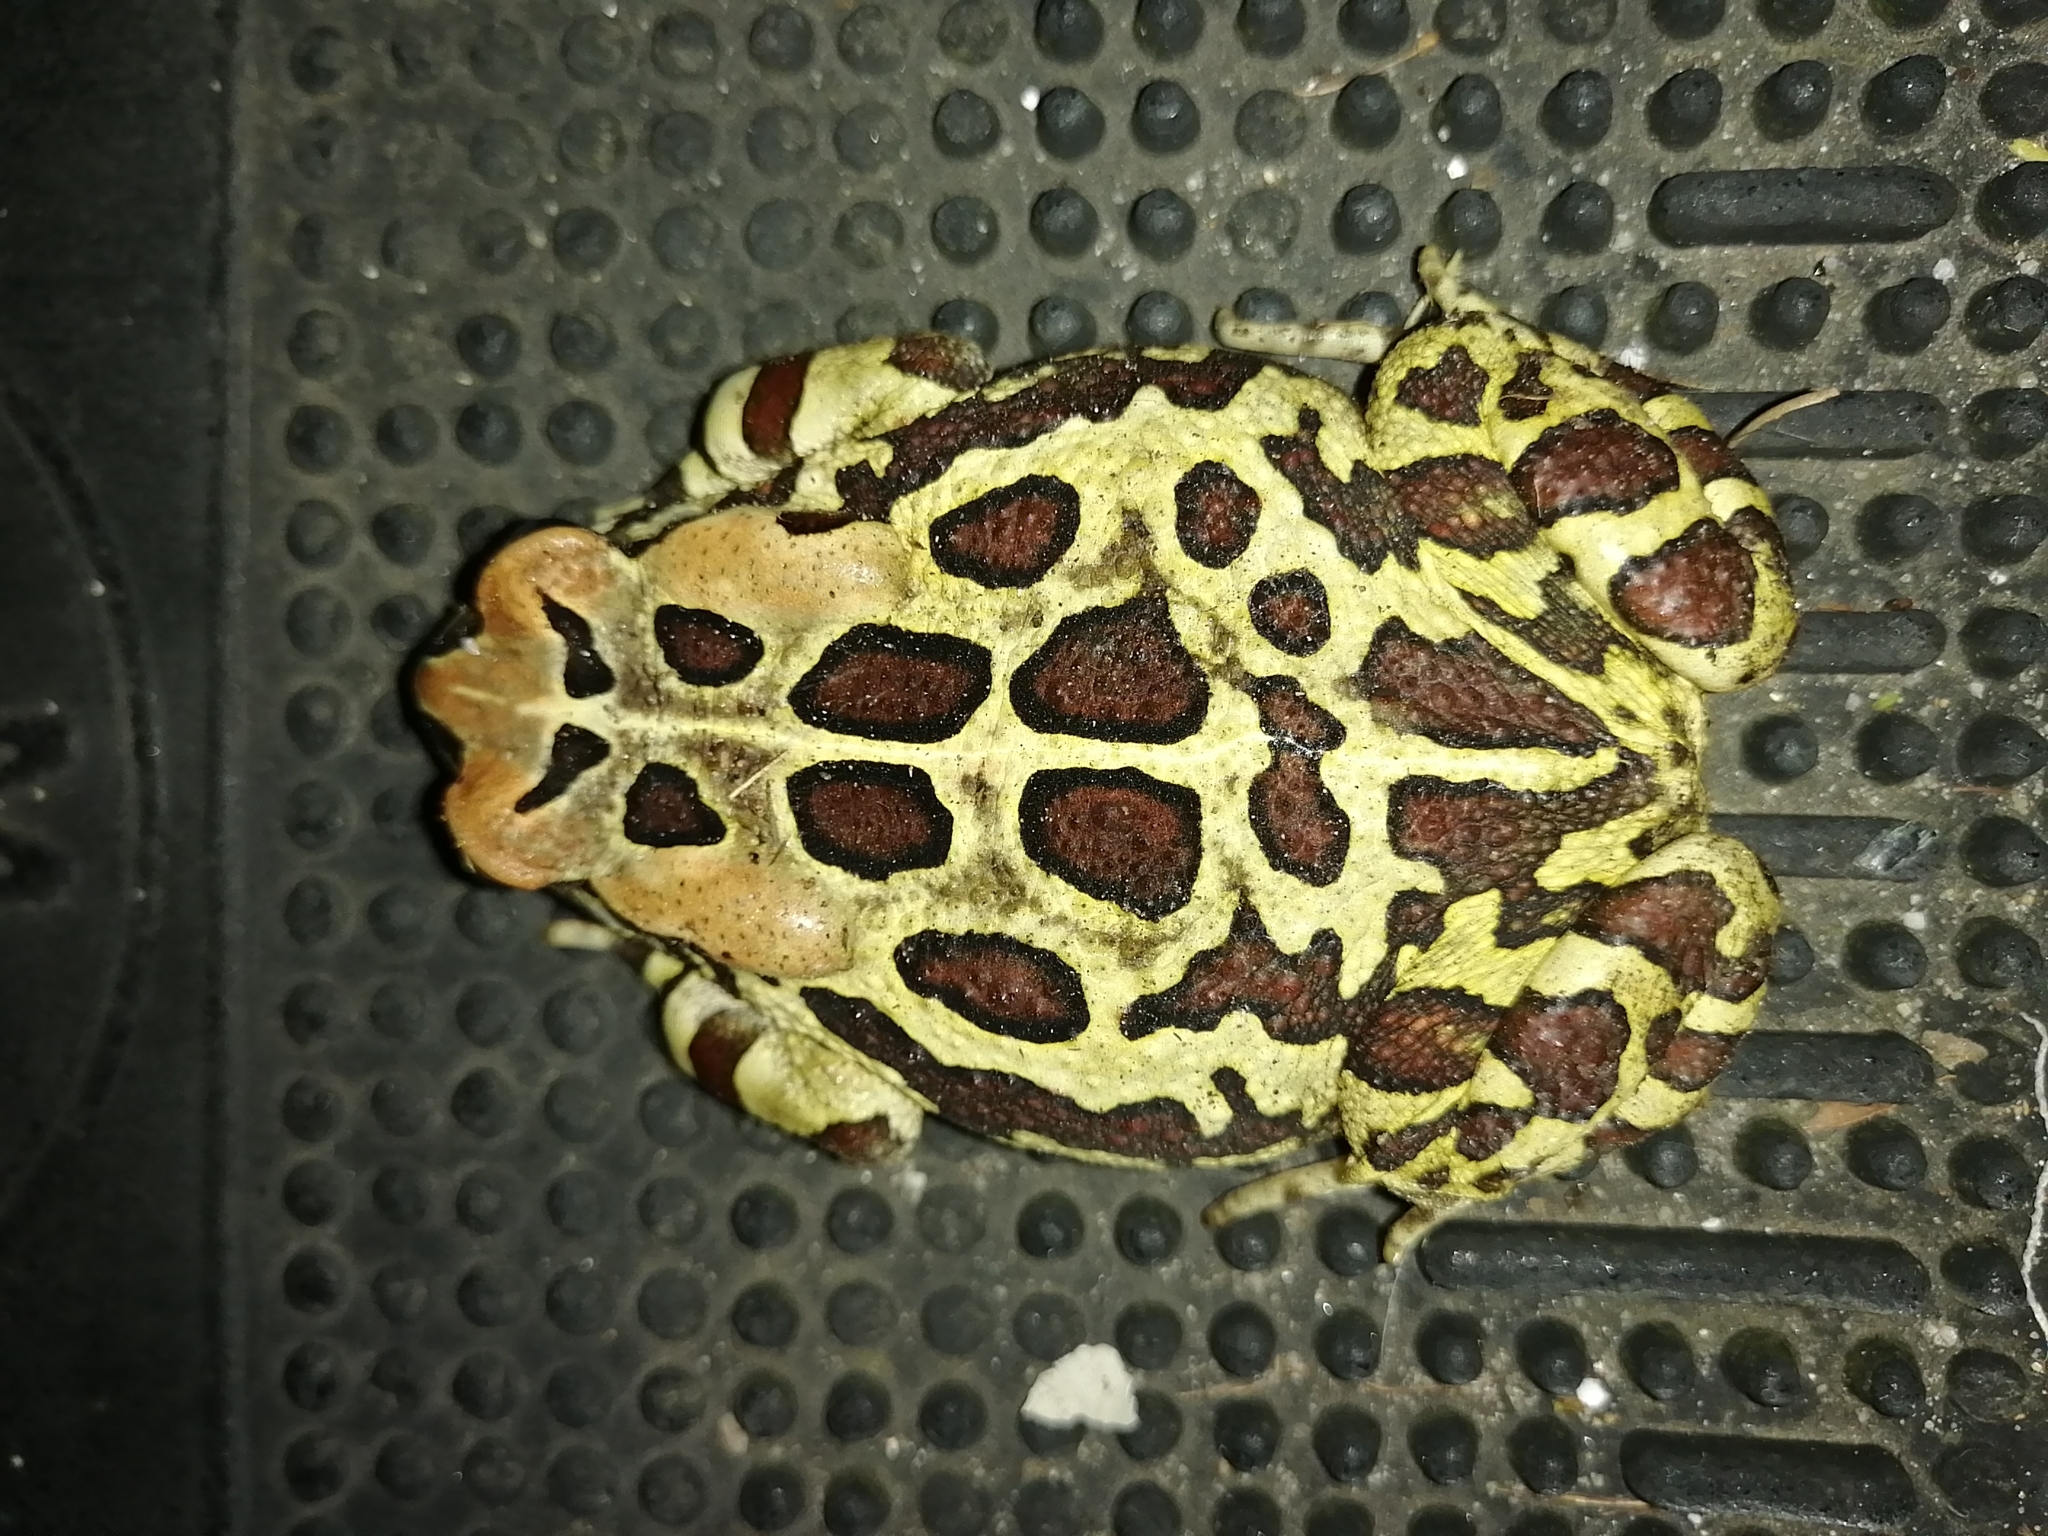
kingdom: Animalia
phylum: Chordata
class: Amphibia
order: Anura
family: Bufonidae
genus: Sclerophrys
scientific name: Sclerophrys pantherina
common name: Panther toad
